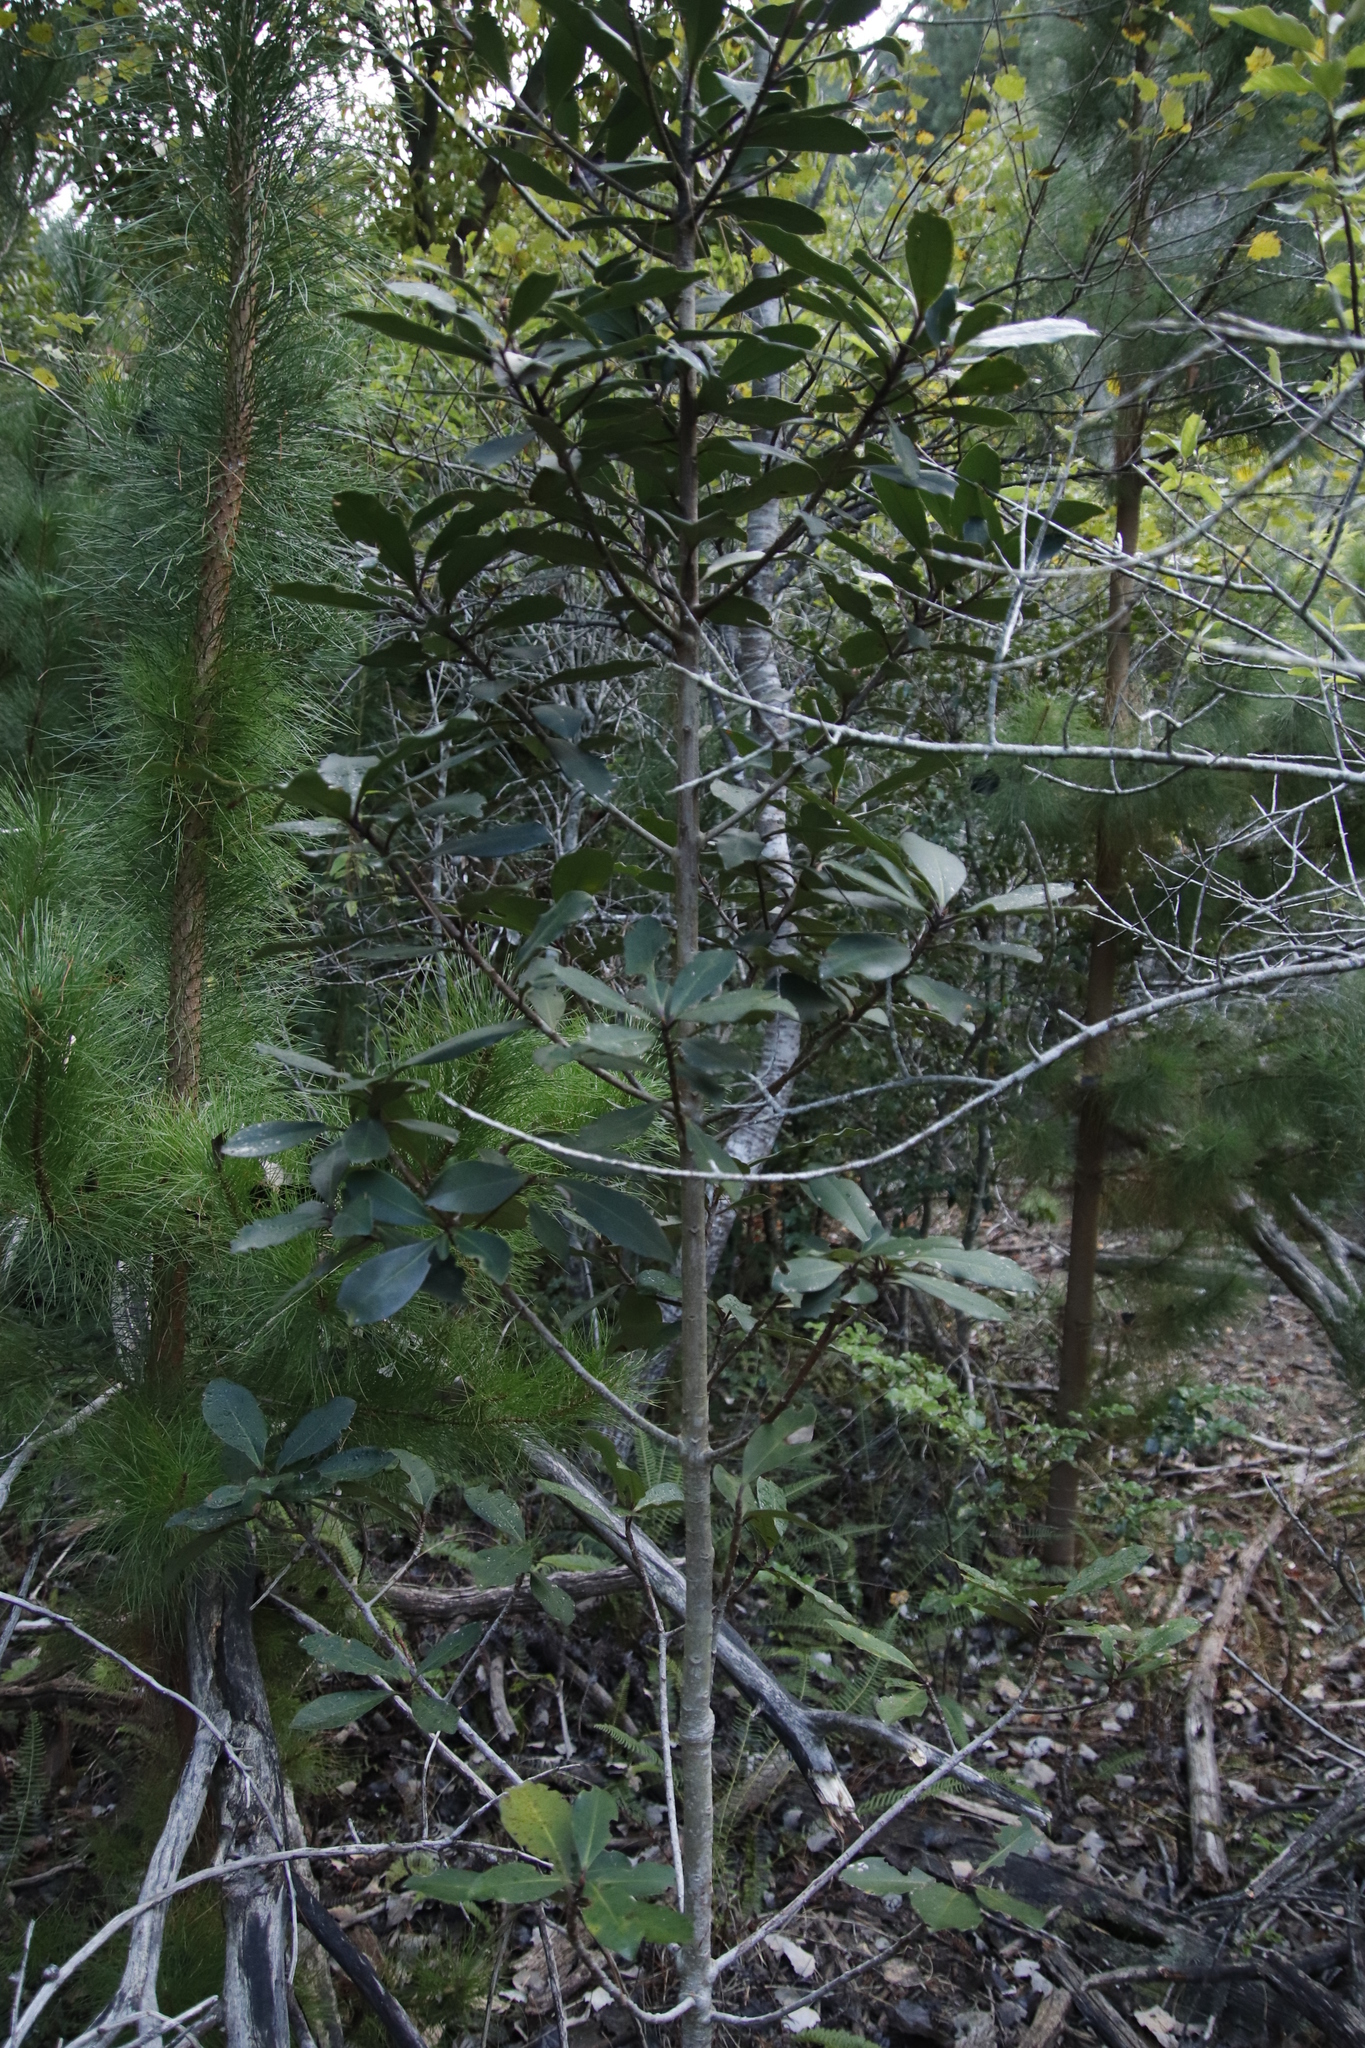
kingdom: Plantae
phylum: Tracheophyta
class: Magnoliopsida
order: Ericales
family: Primulaceae
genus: Myrsine
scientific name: Myrsine melanophloeos
